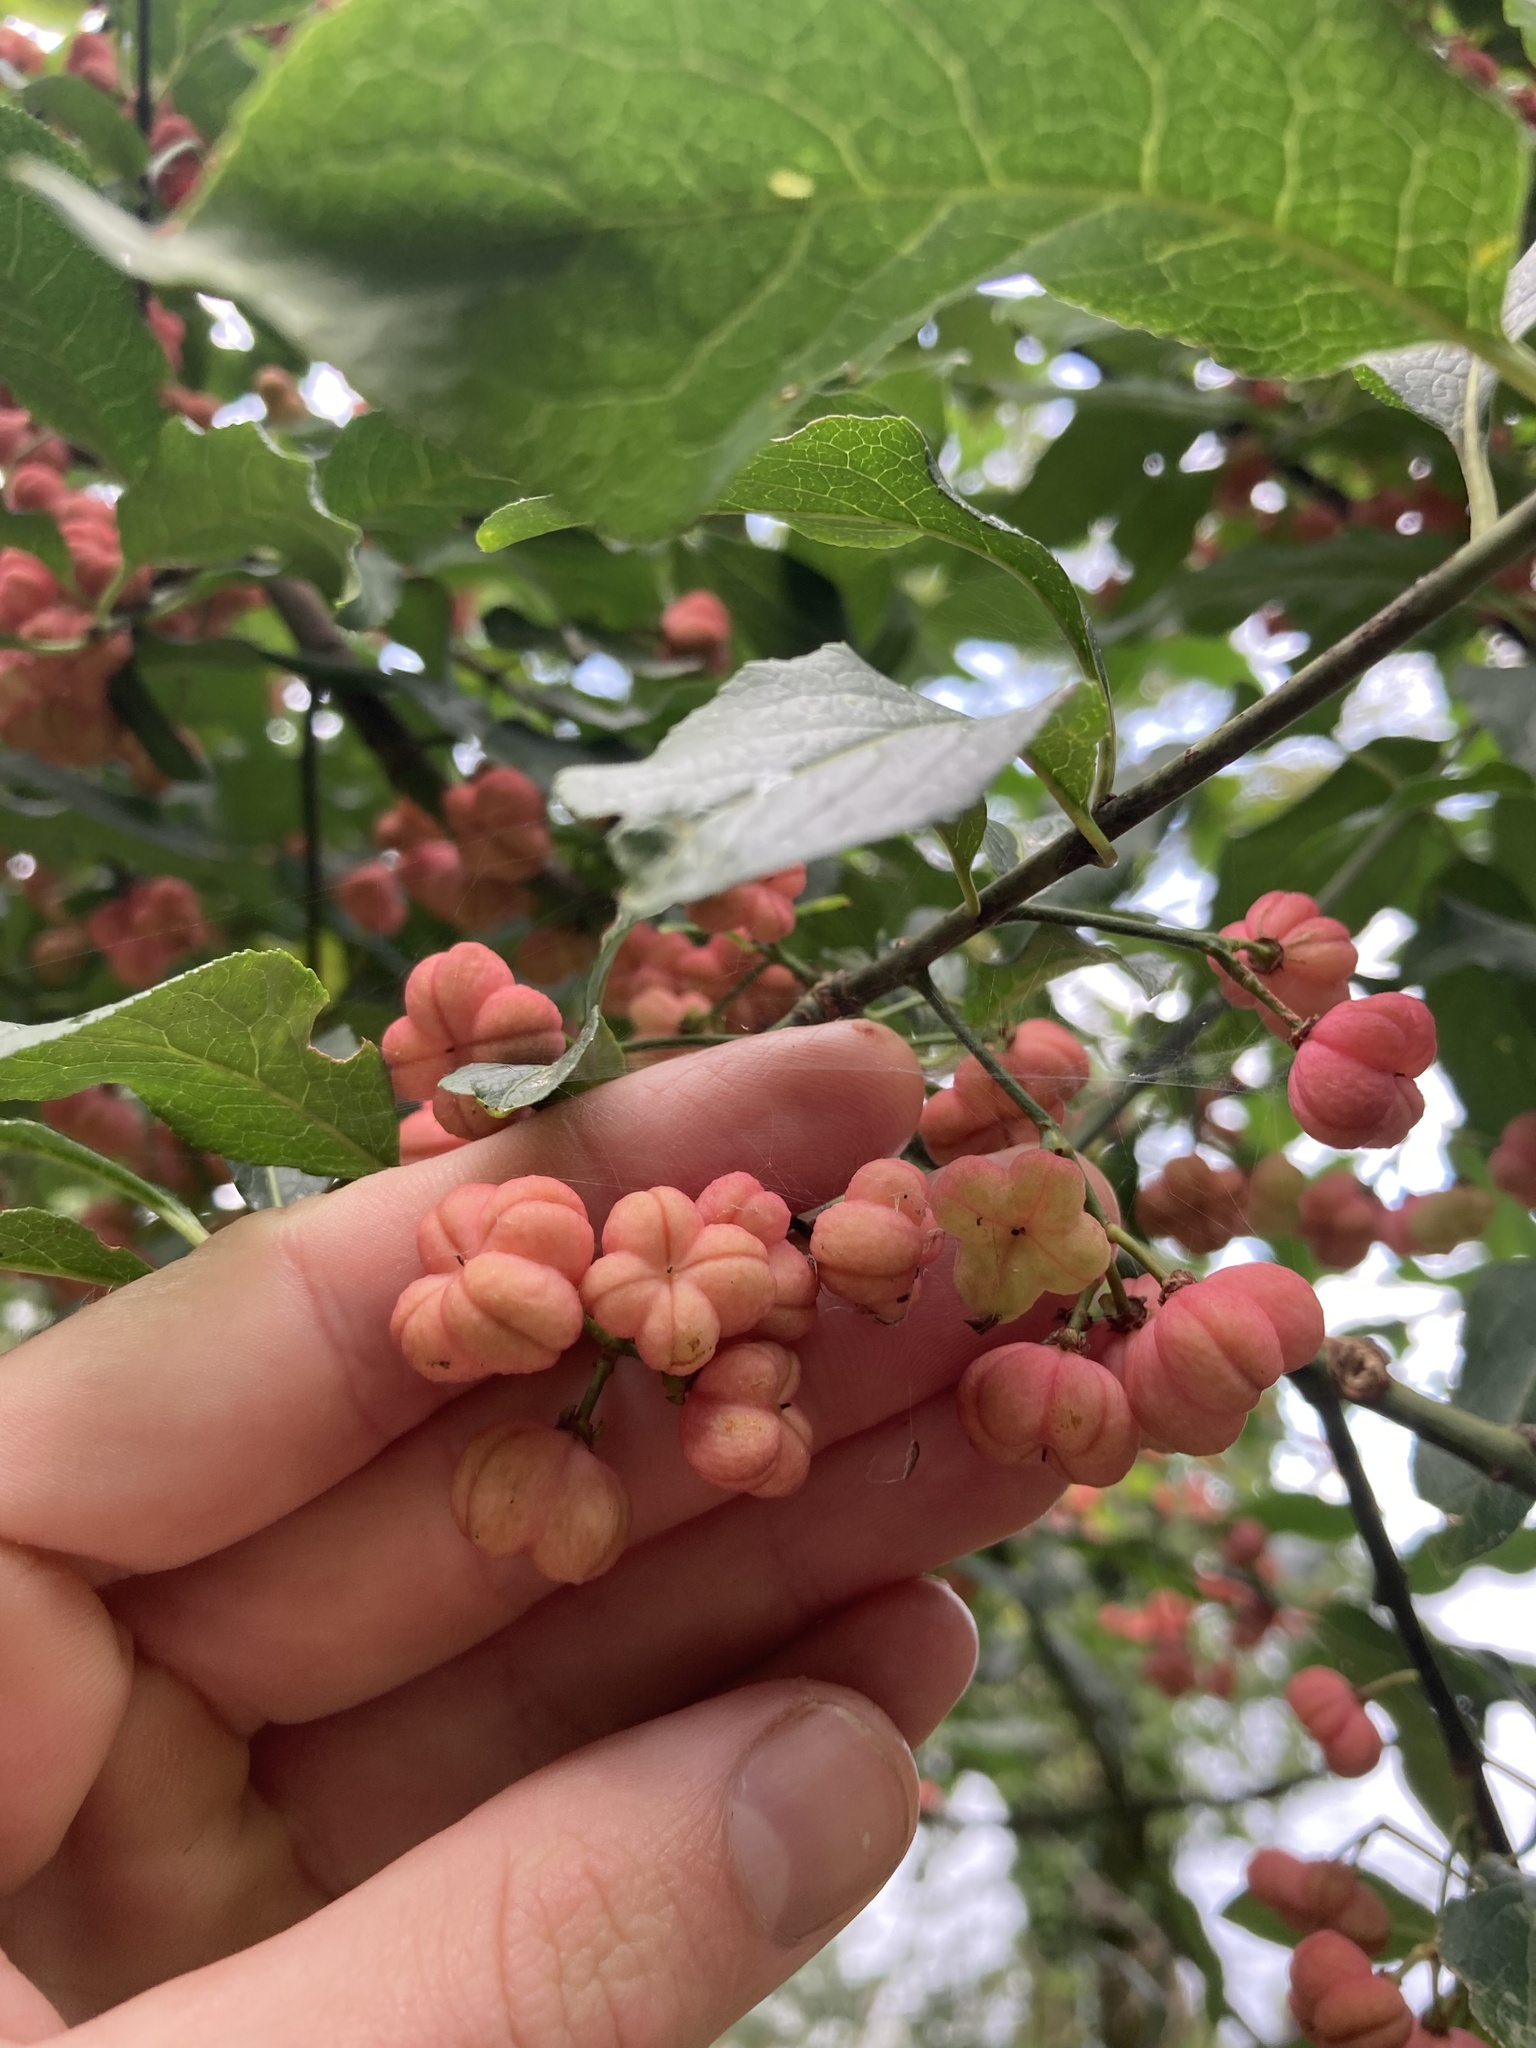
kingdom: Plantae
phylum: Tracheophyta
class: Magnoliopsida
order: Celastrales
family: Celastraceae
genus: Euonymus
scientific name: Euonymus europaeus
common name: Spindle
